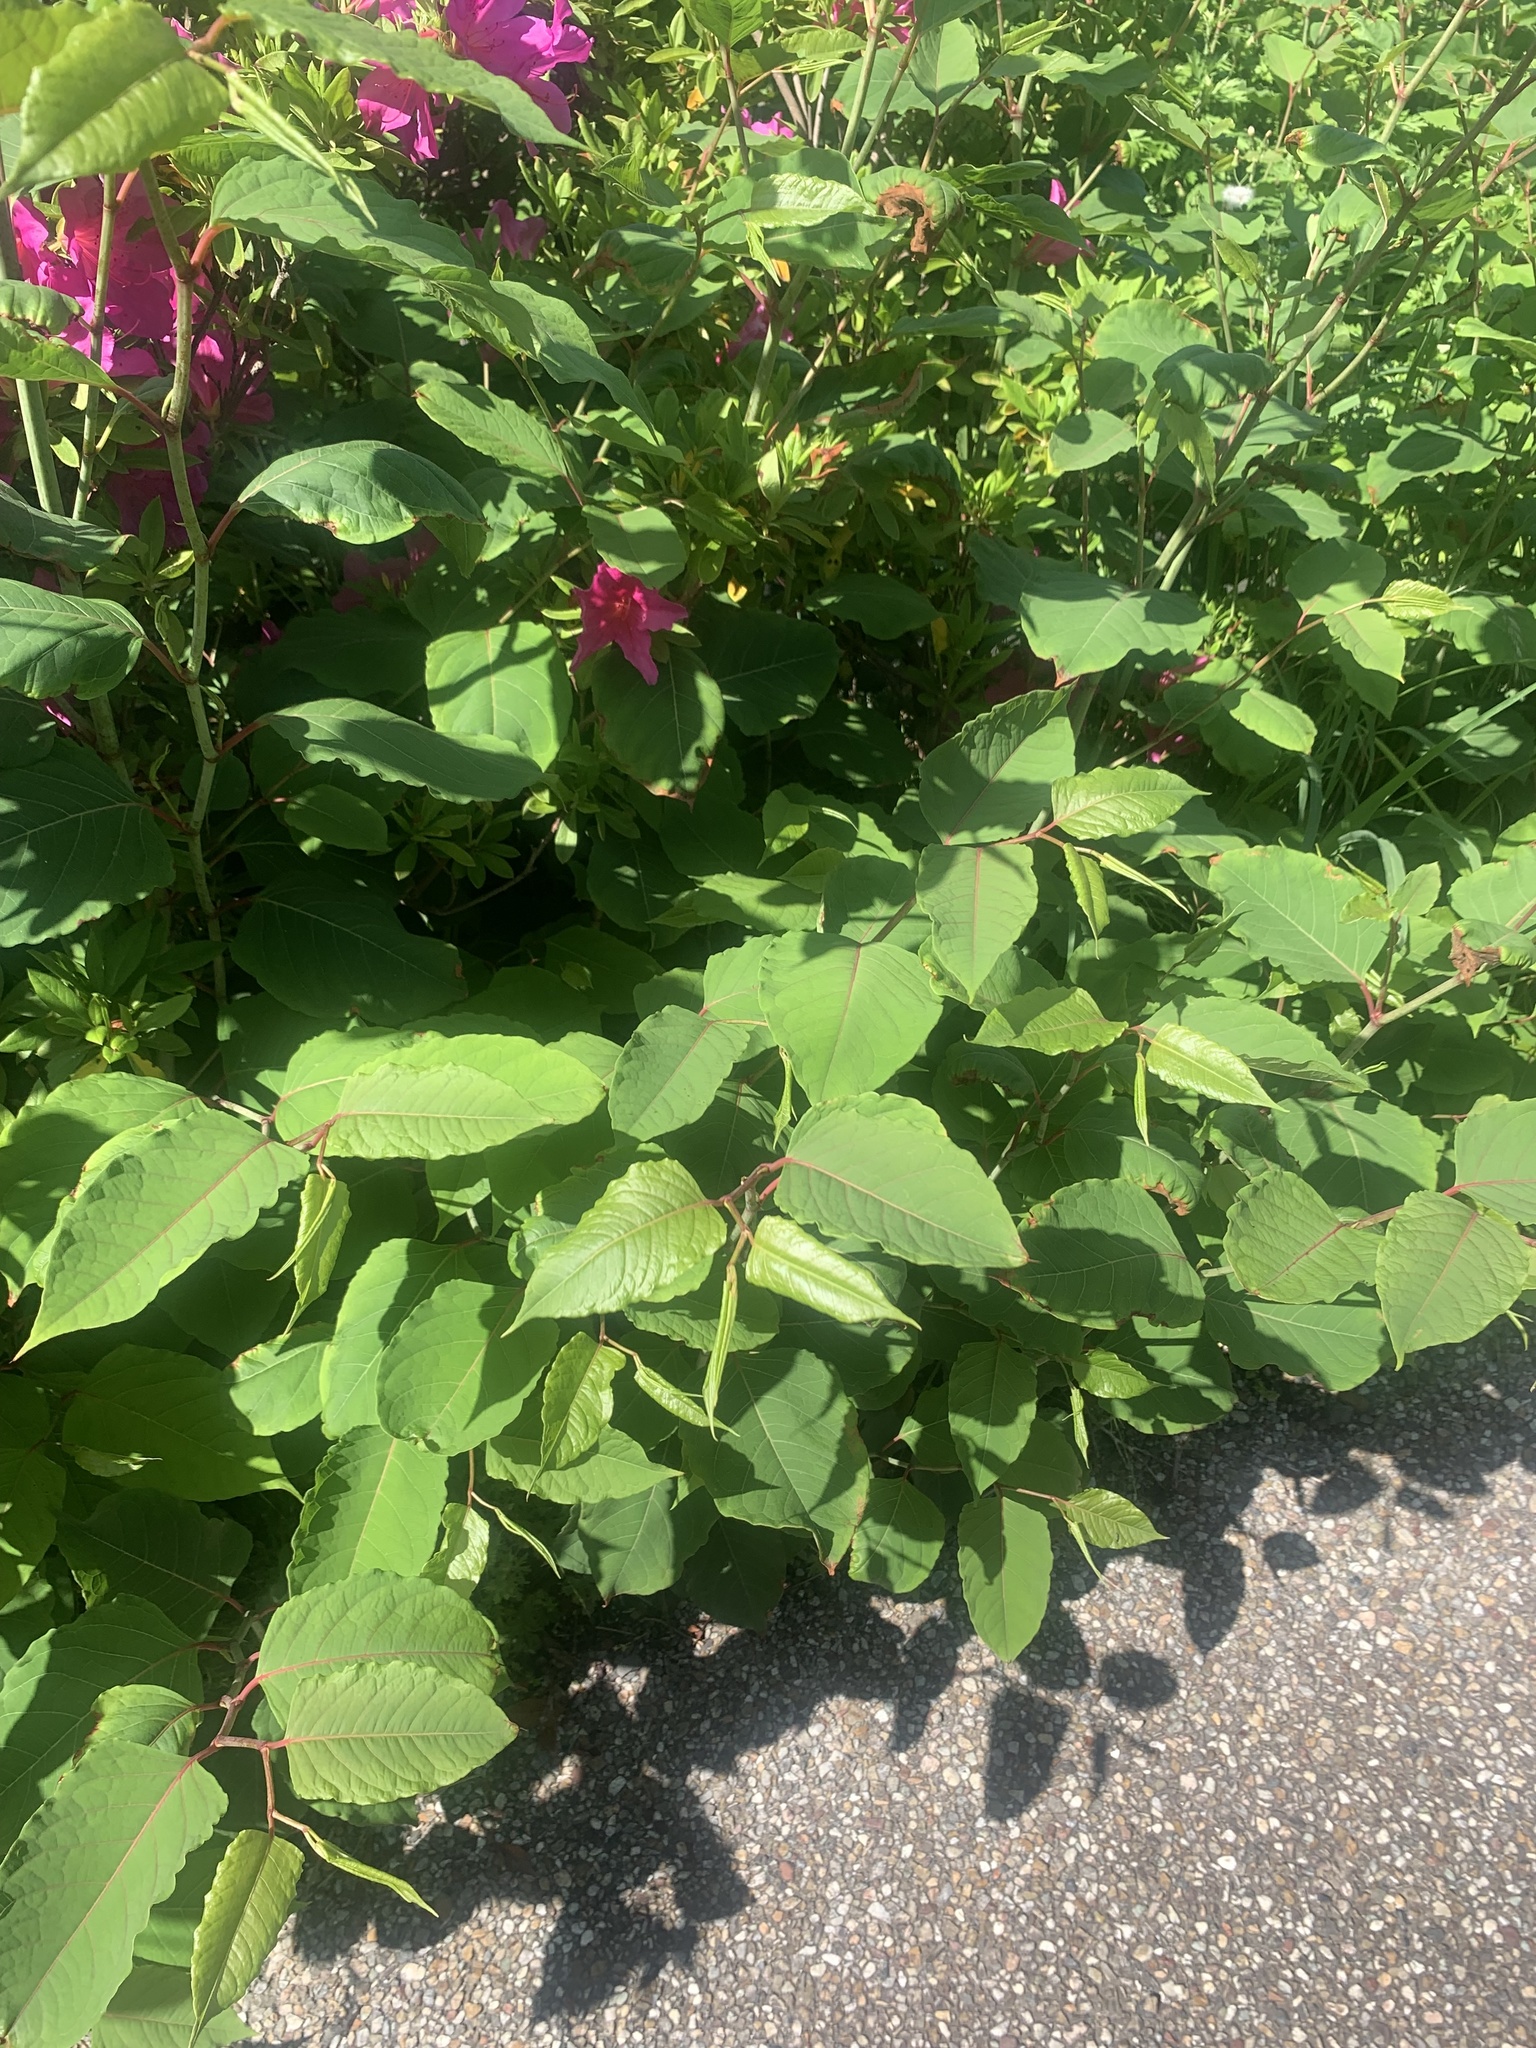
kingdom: Plantae
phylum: Tracheophyta
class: Magnoliopsida
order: Caryophyllales
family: Polygonaceae
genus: Reynoutria
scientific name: Reynoutria japonica
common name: Japanese knotweed
